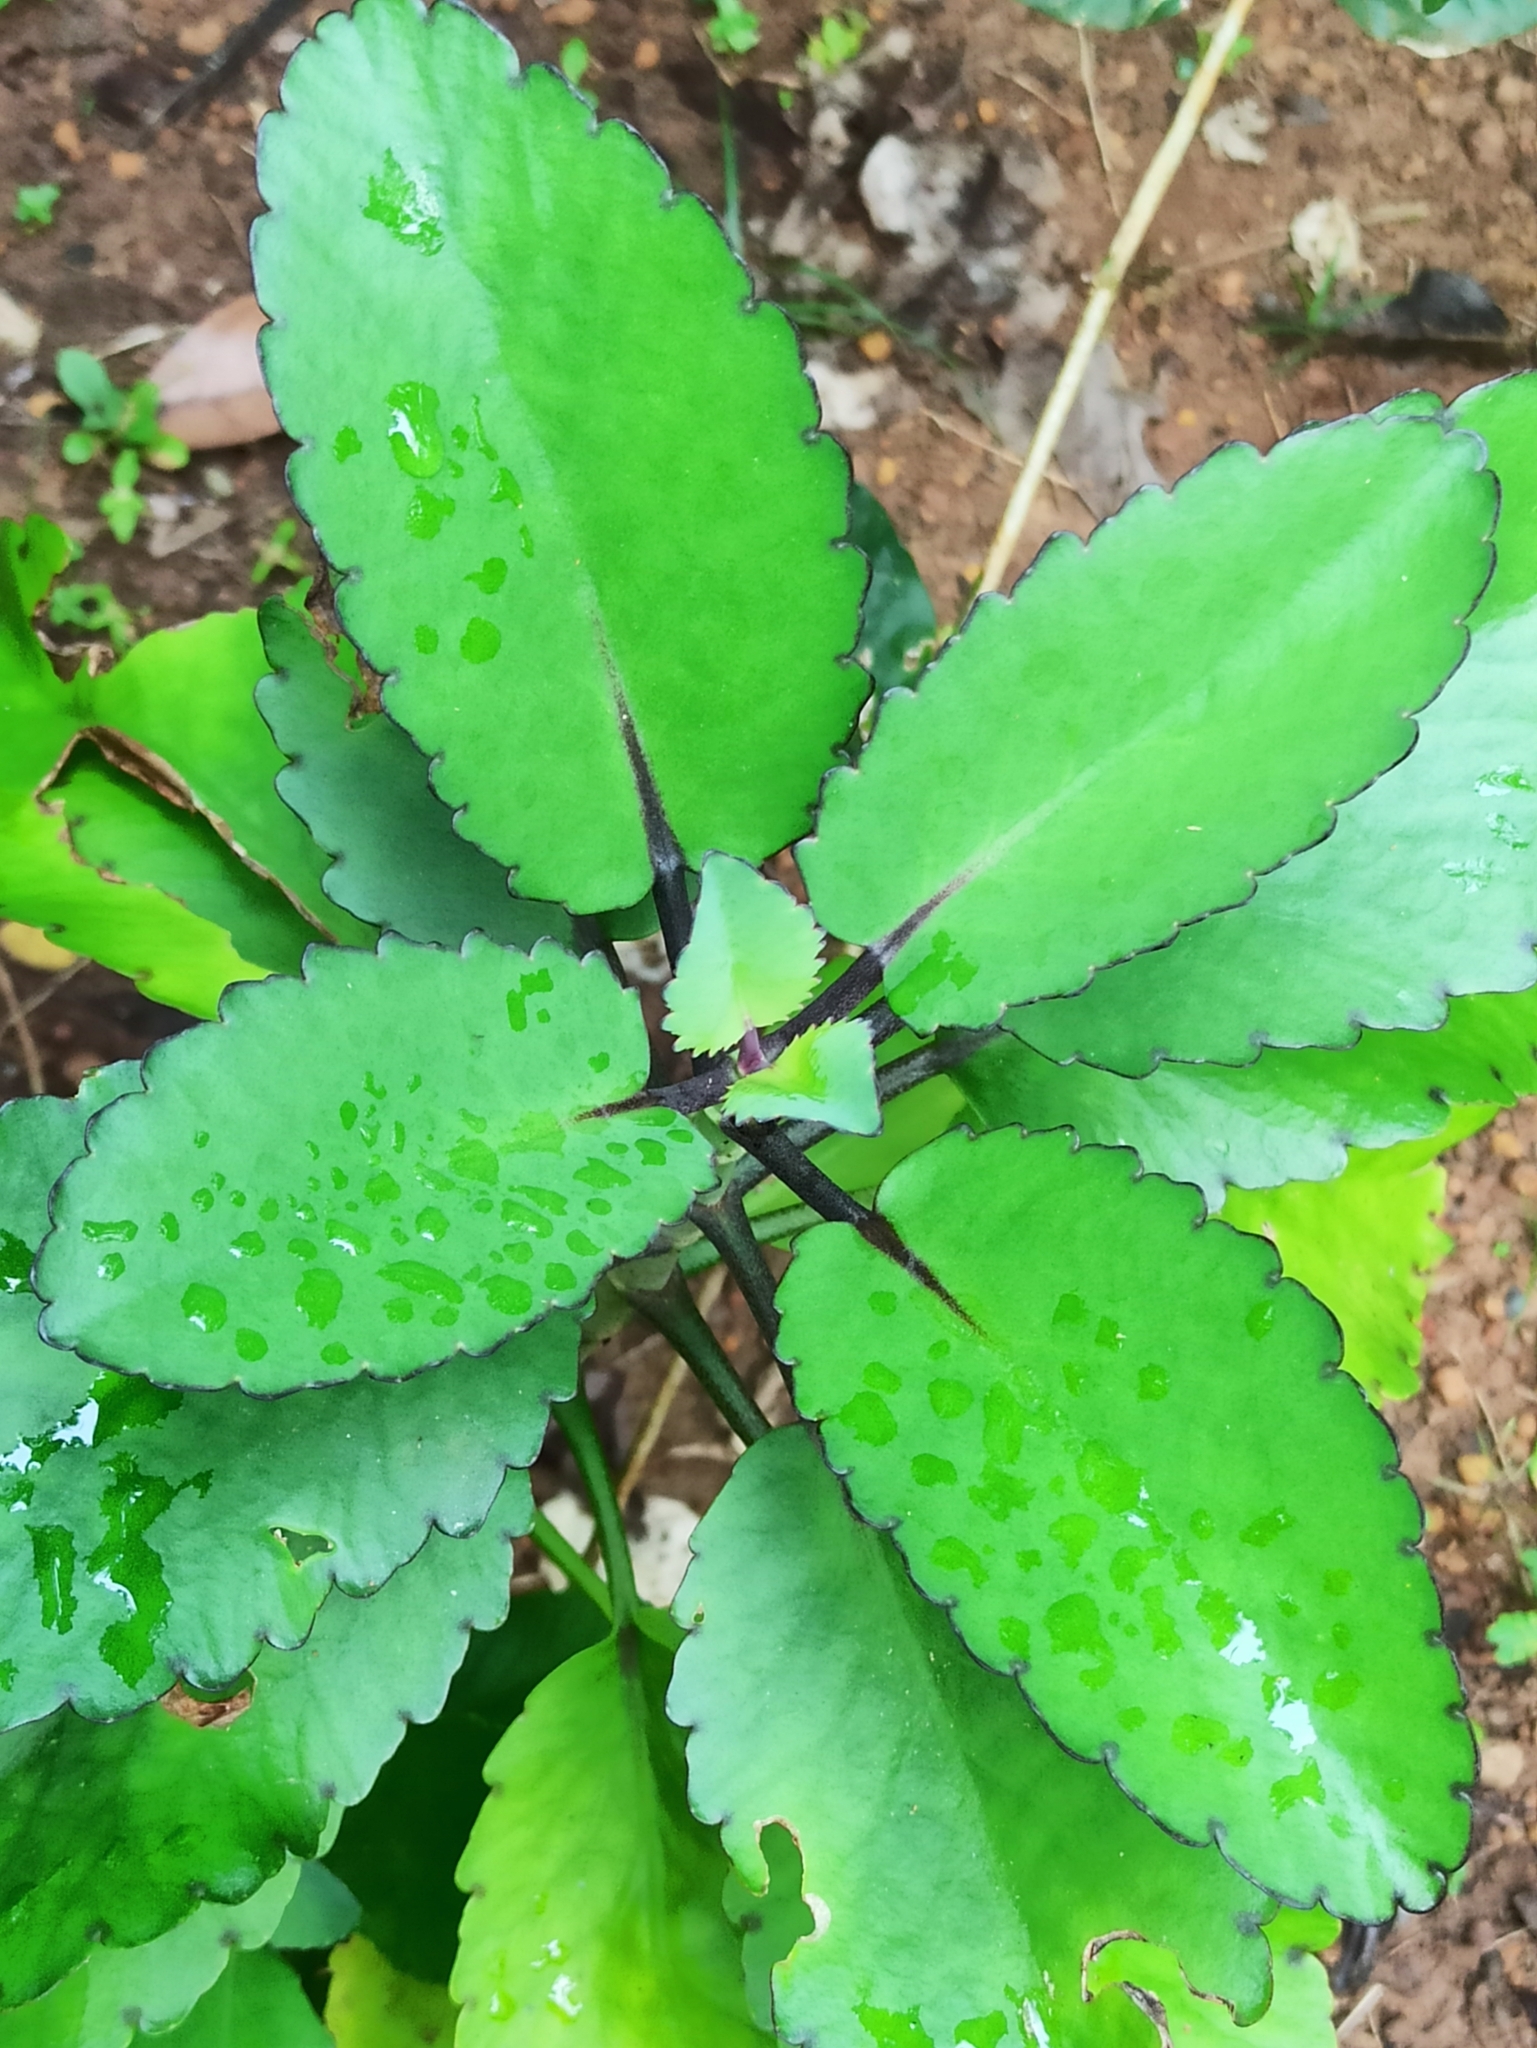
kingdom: Plantae
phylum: Tracheophyta
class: Magnoliopsida
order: Saxifragales
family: Crassulaceae
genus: Kalanchoe
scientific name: Kalanchoe pinnata
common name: Cathedral bells
